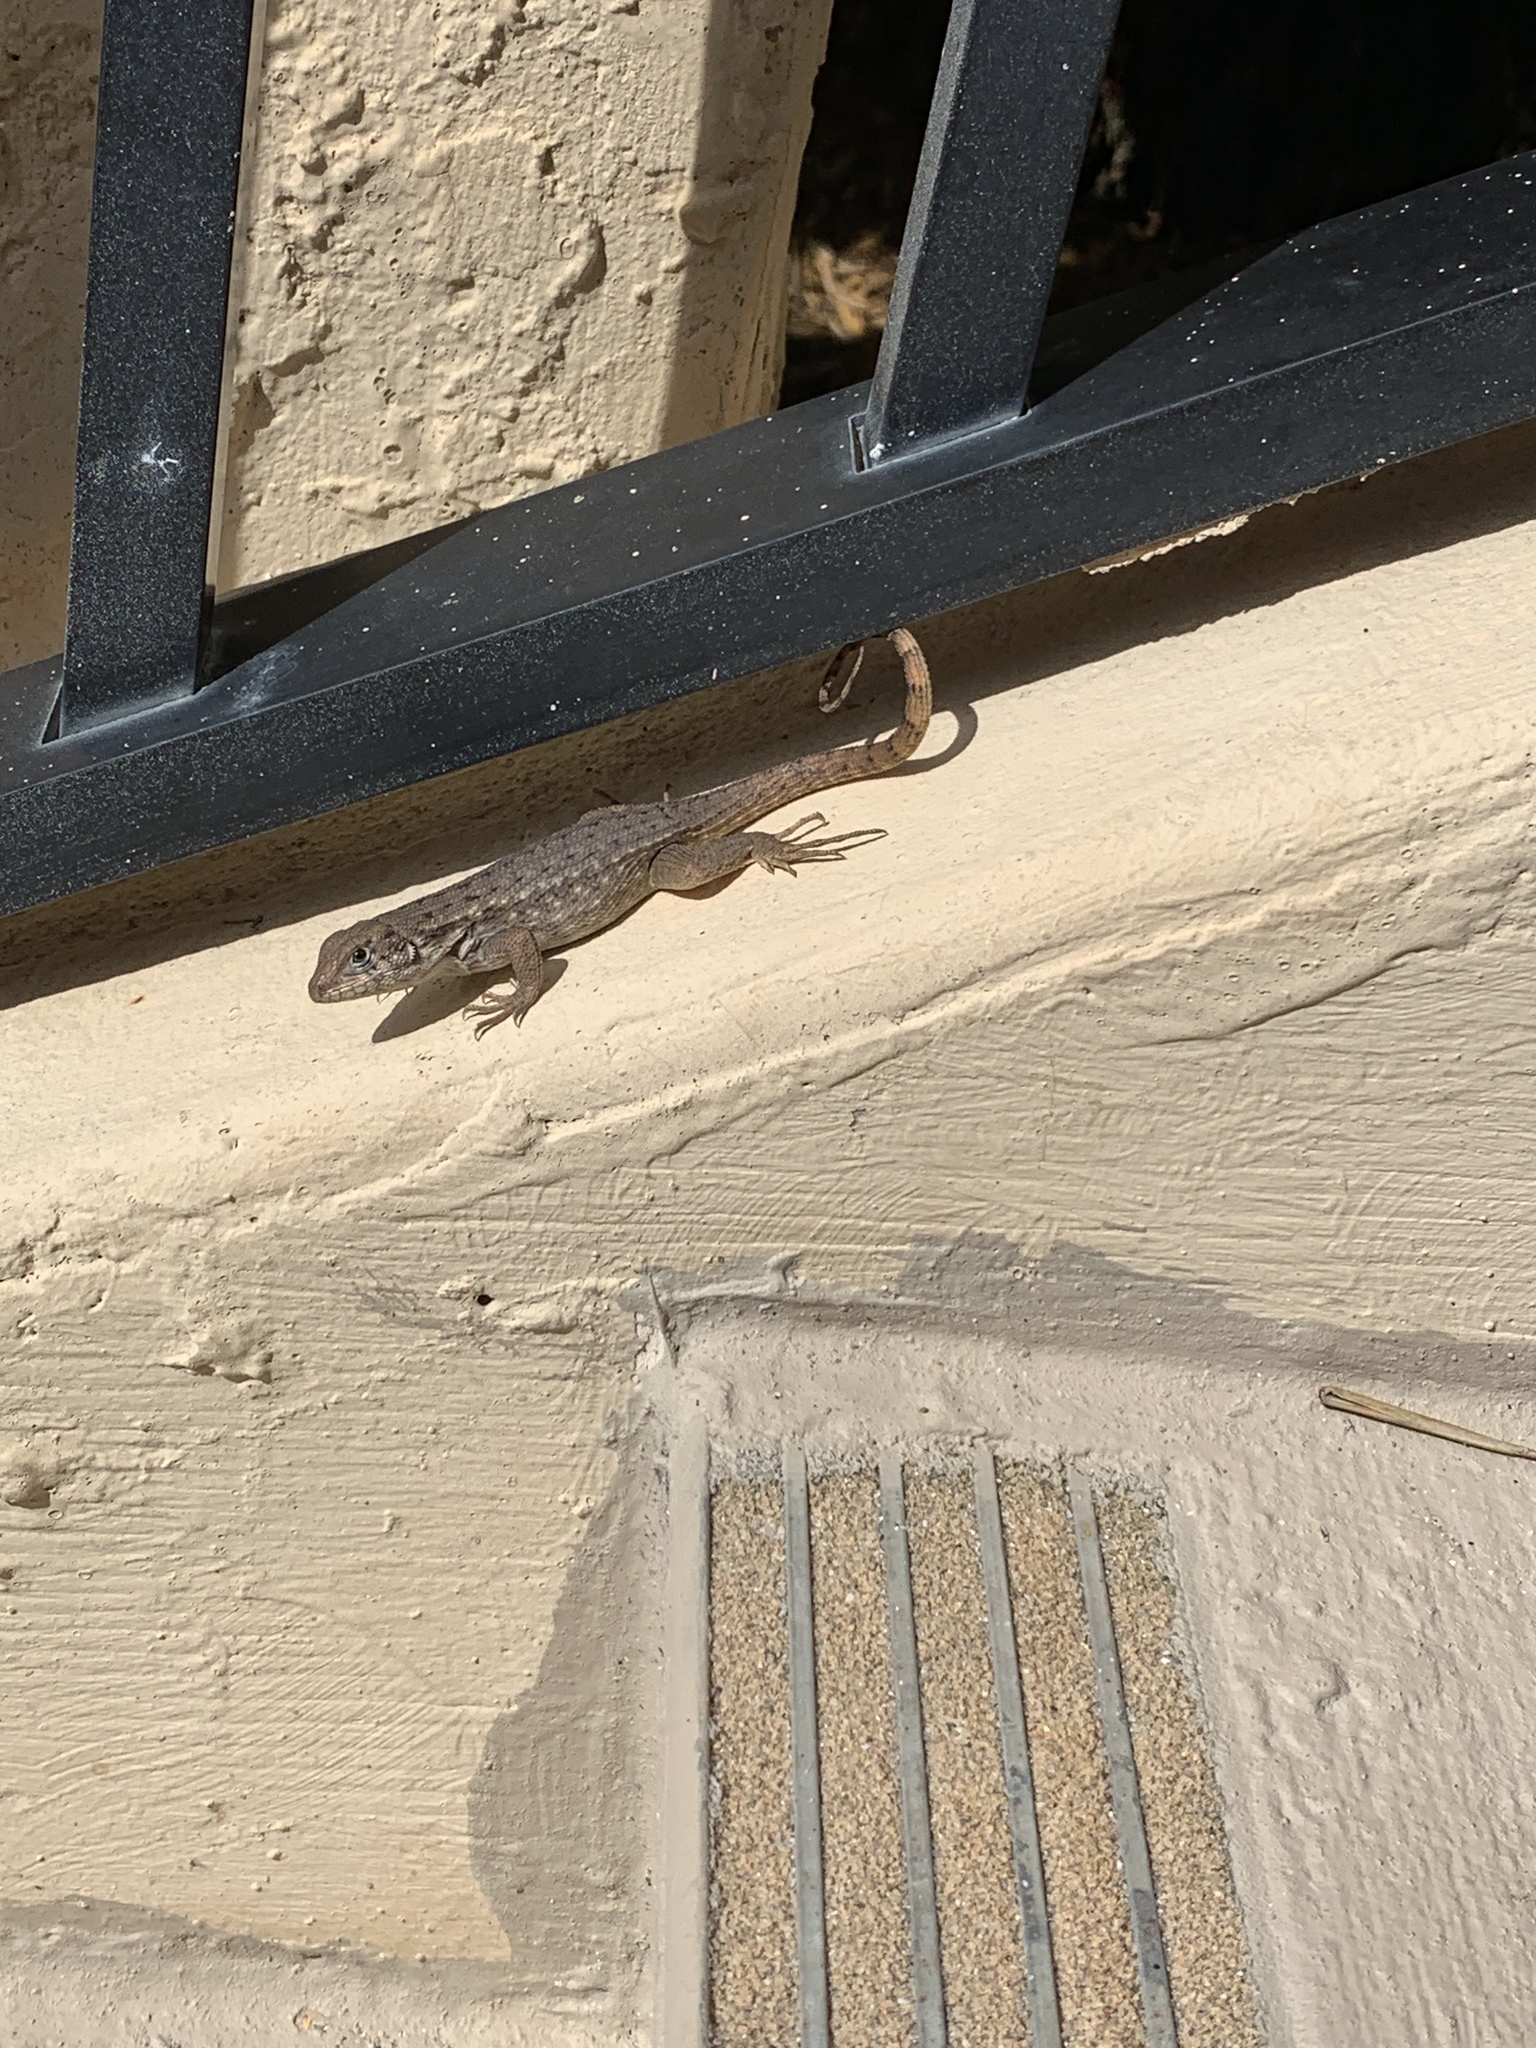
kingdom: Animalia
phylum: Chordata
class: Squamata
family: Leiocephalidae
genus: Leiocephalus
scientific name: Leiocephalus carinatus
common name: Northern curly-tailed lizard
